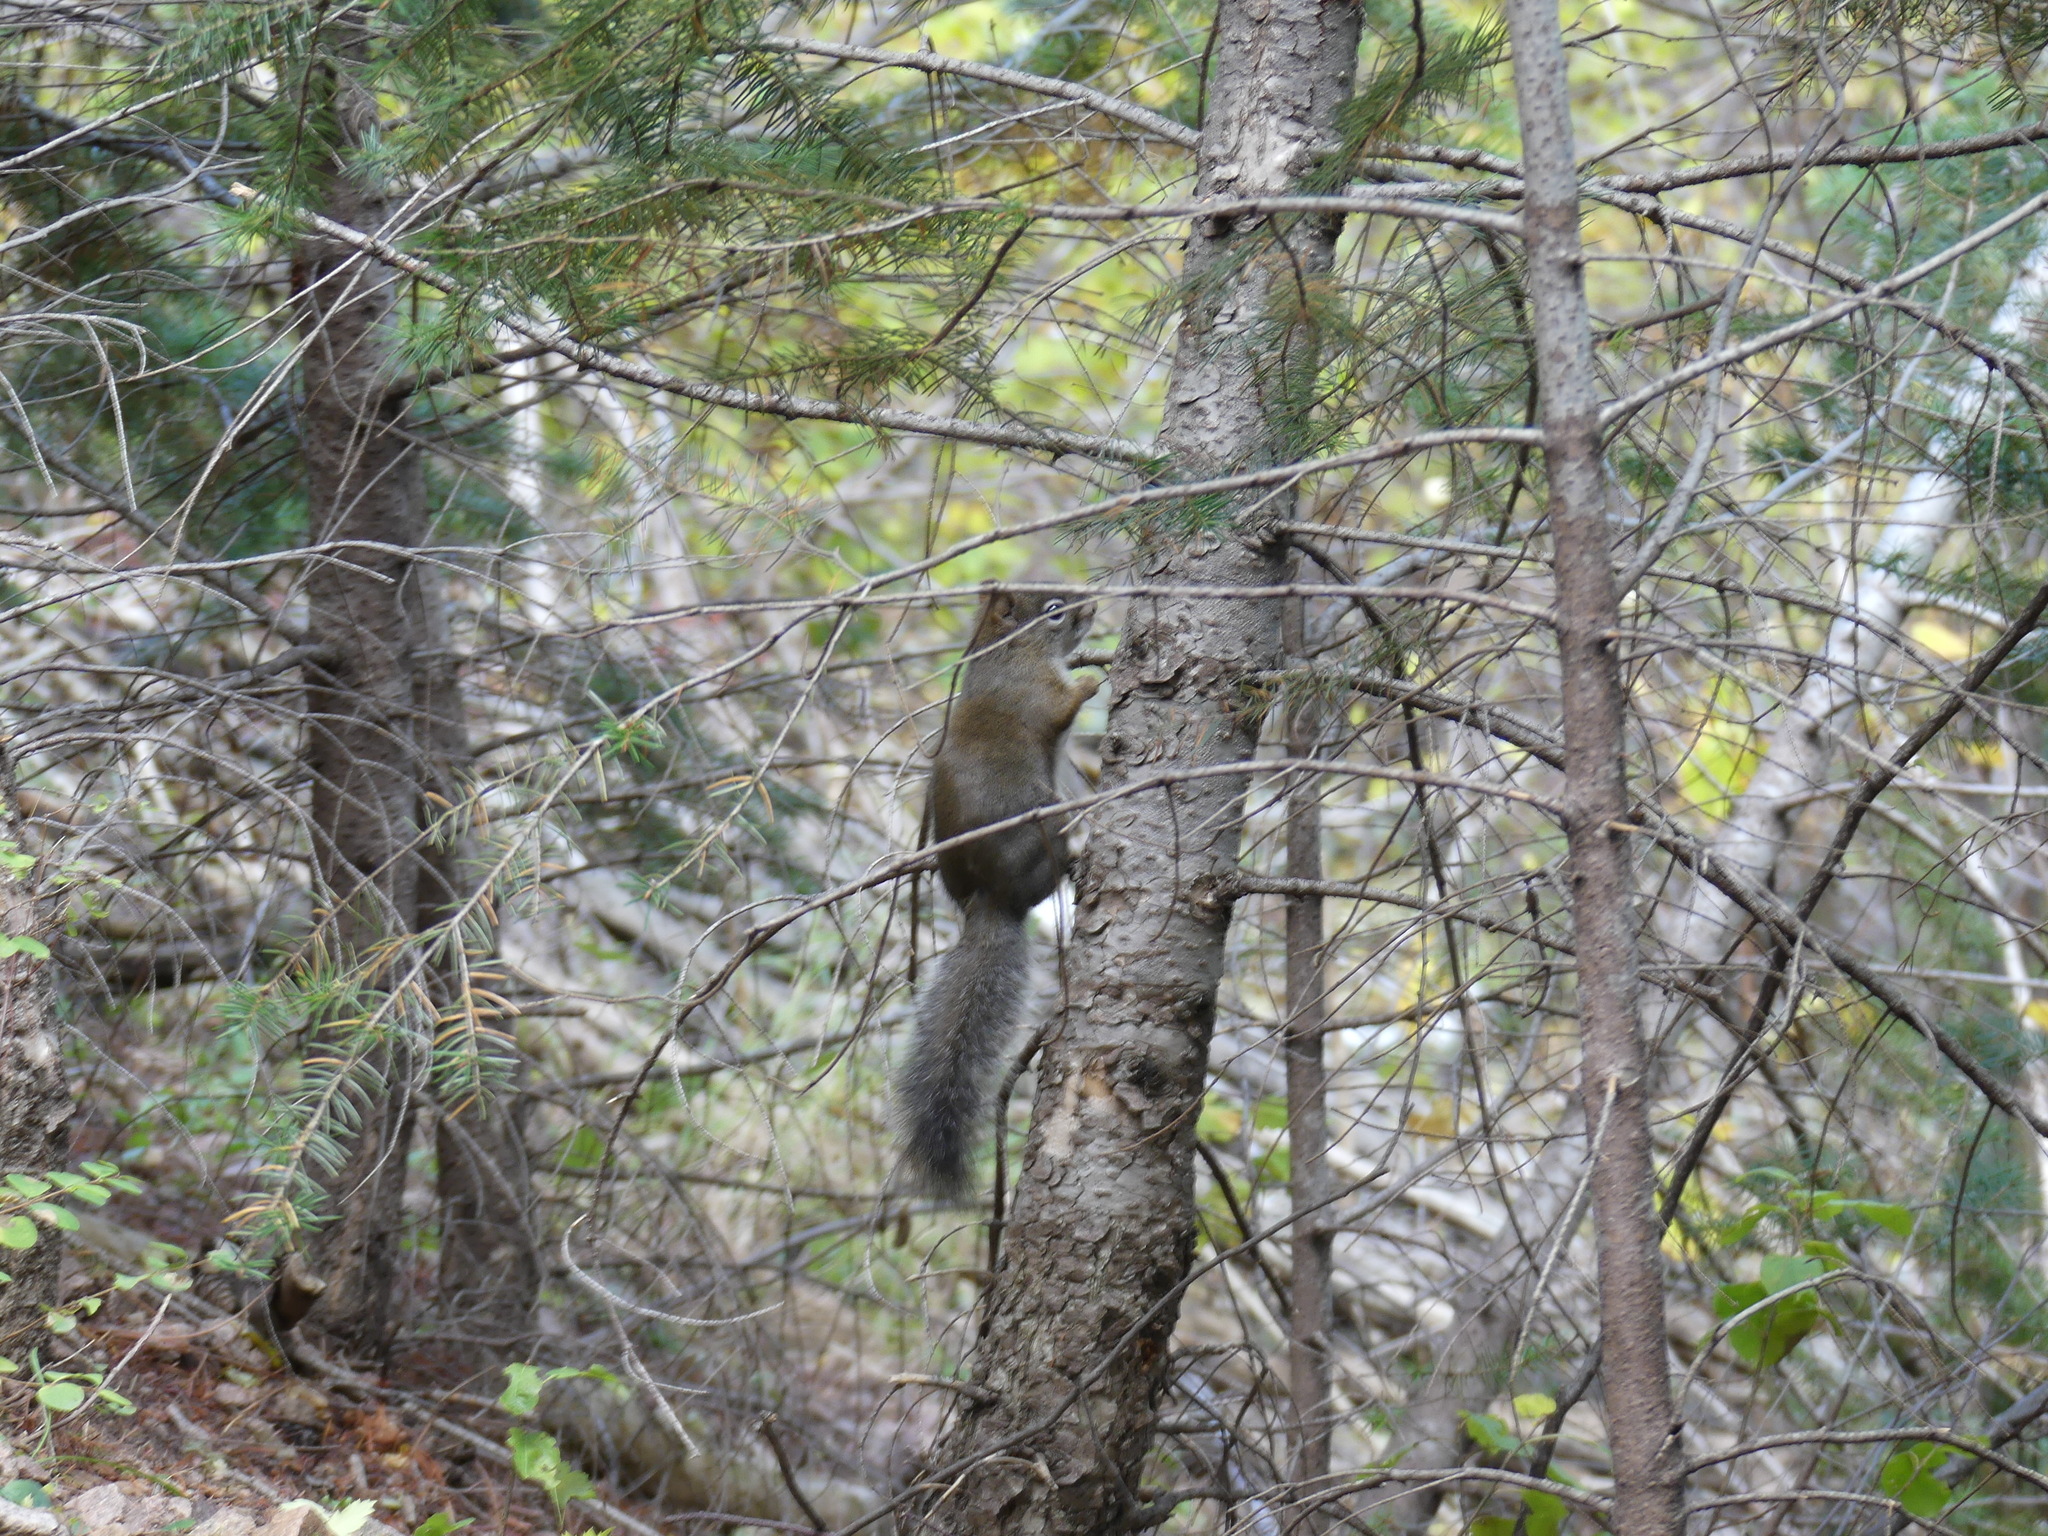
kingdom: Animalia
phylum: Chordata
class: Mammalia
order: Rodentia
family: Sciuridae
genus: Tamiasciurus
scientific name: Tamiasciurus hudsonicus
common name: Red squirrel
